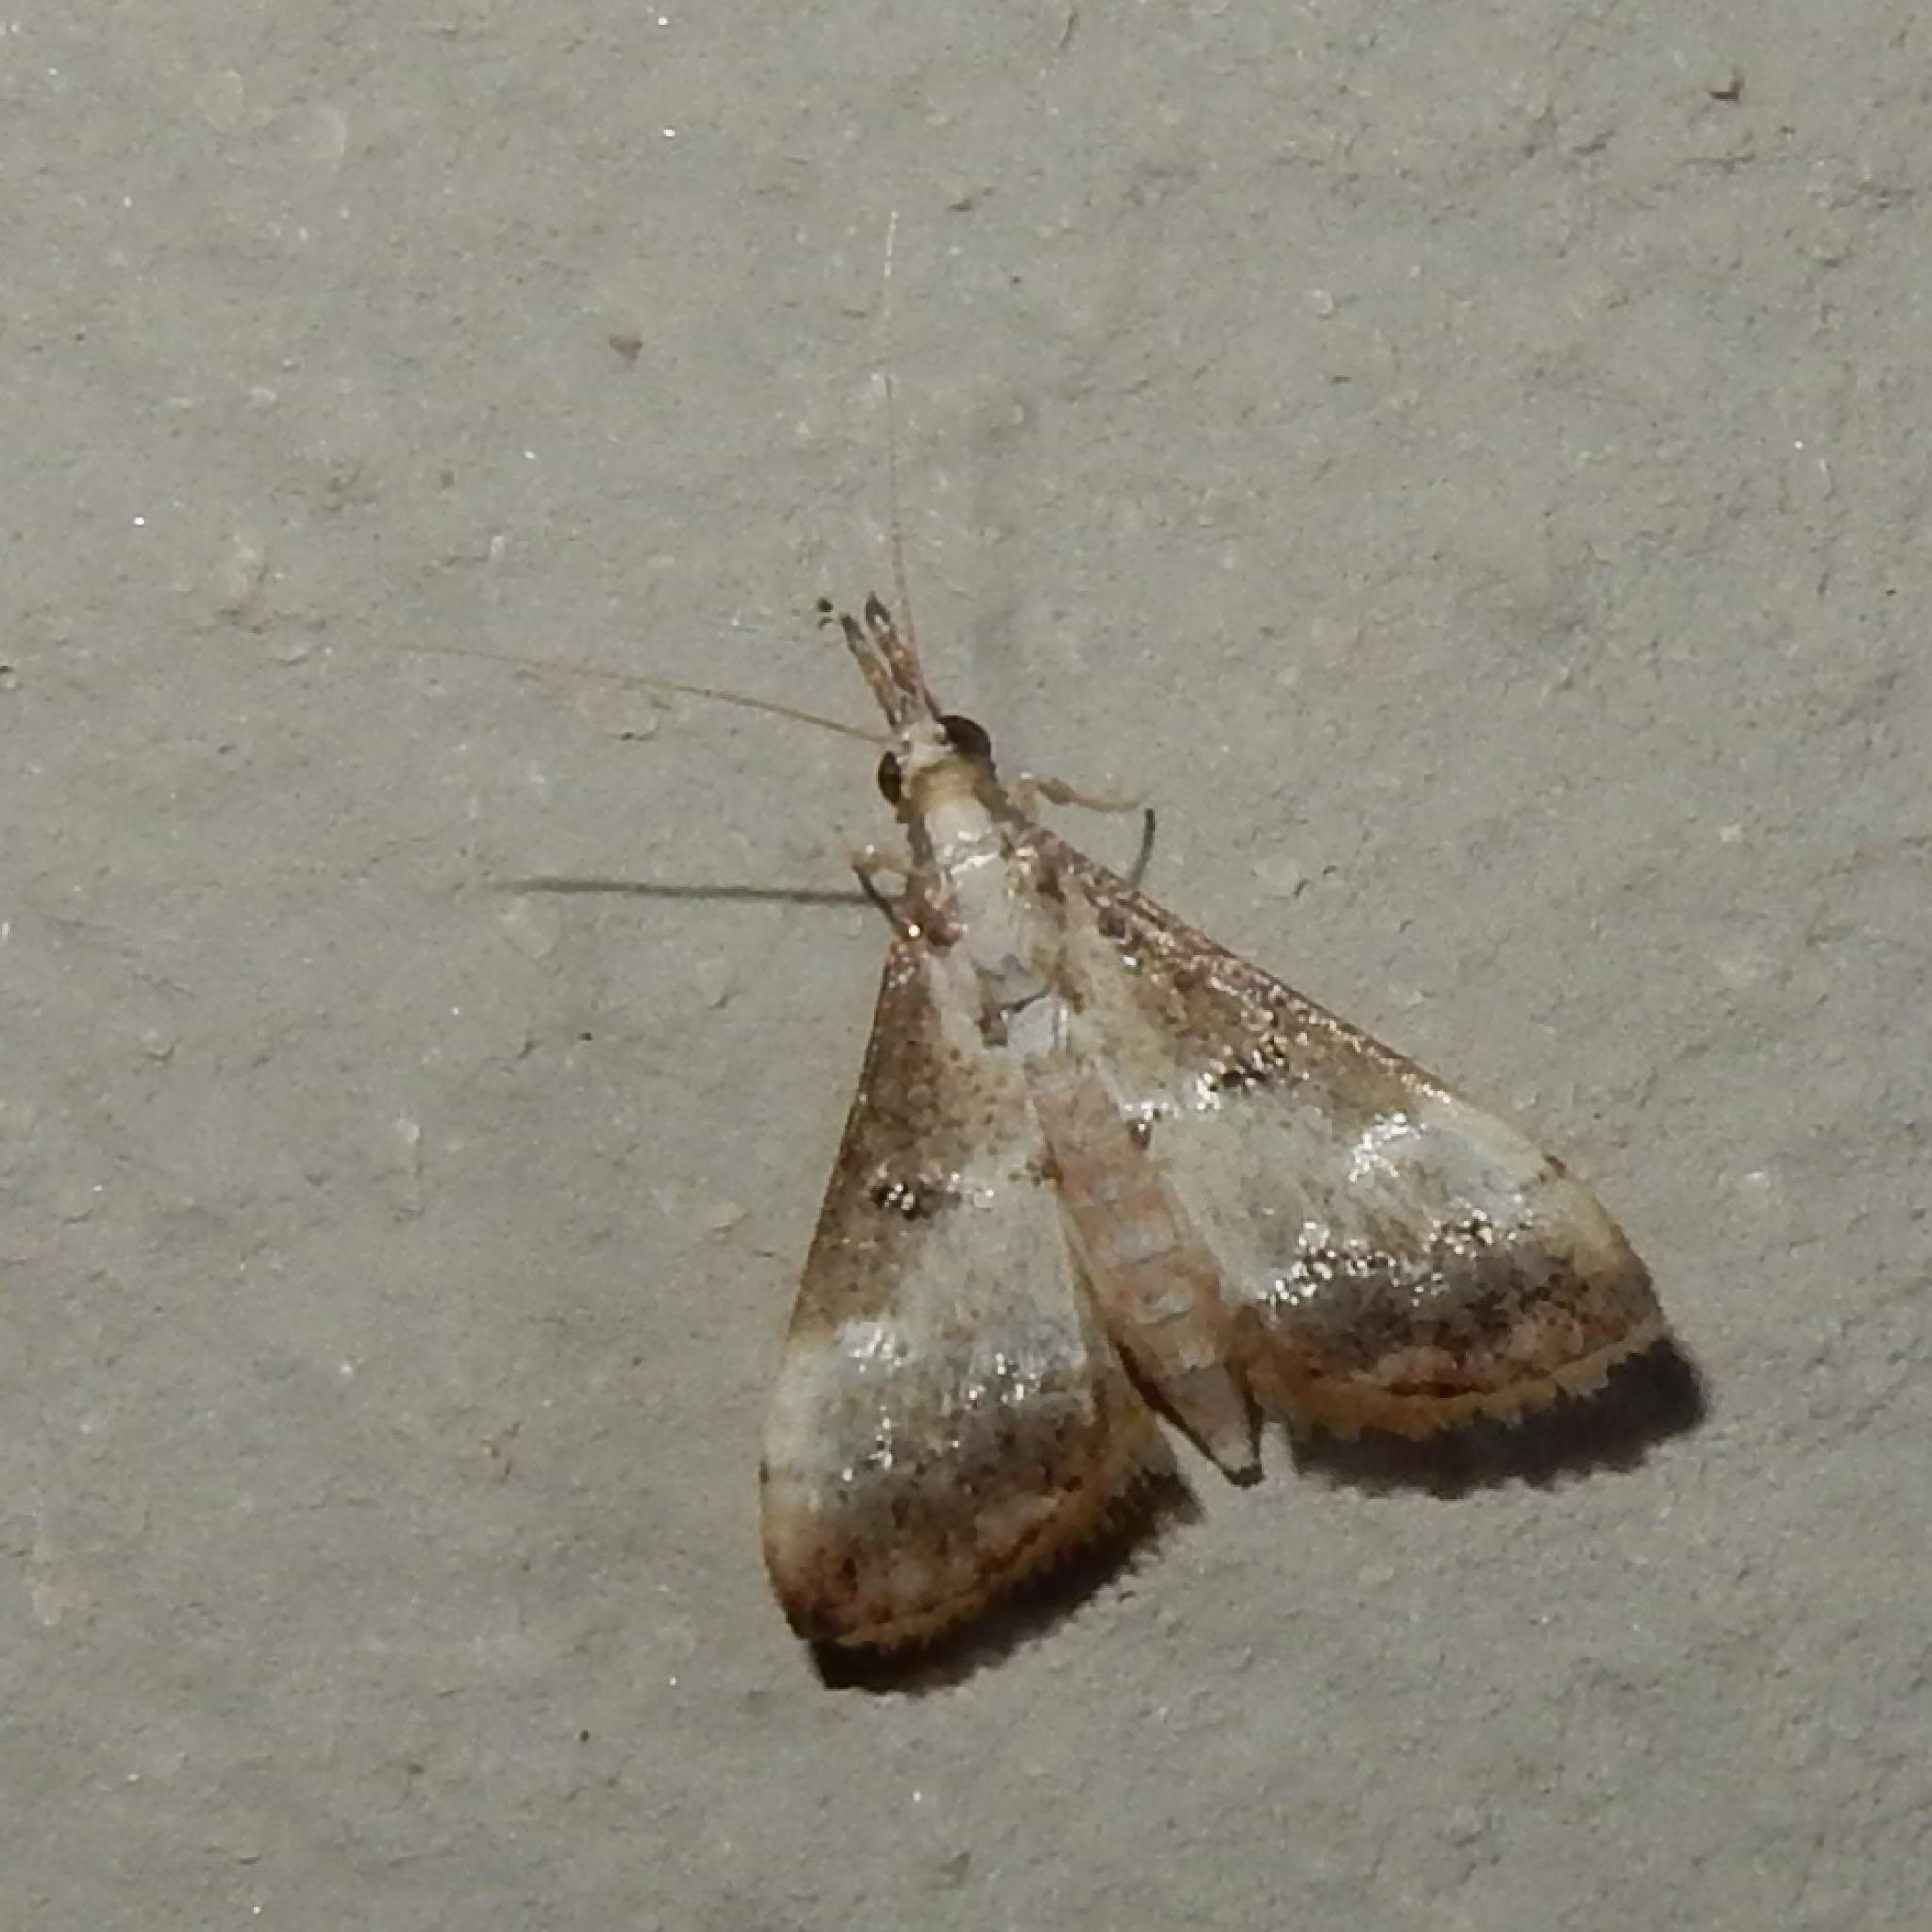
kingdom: Animalia
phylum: Arthropoda
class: Insecta
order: Lepidoptera
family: Crambidae
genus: Autocharis
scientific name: Autocharis sinualis
